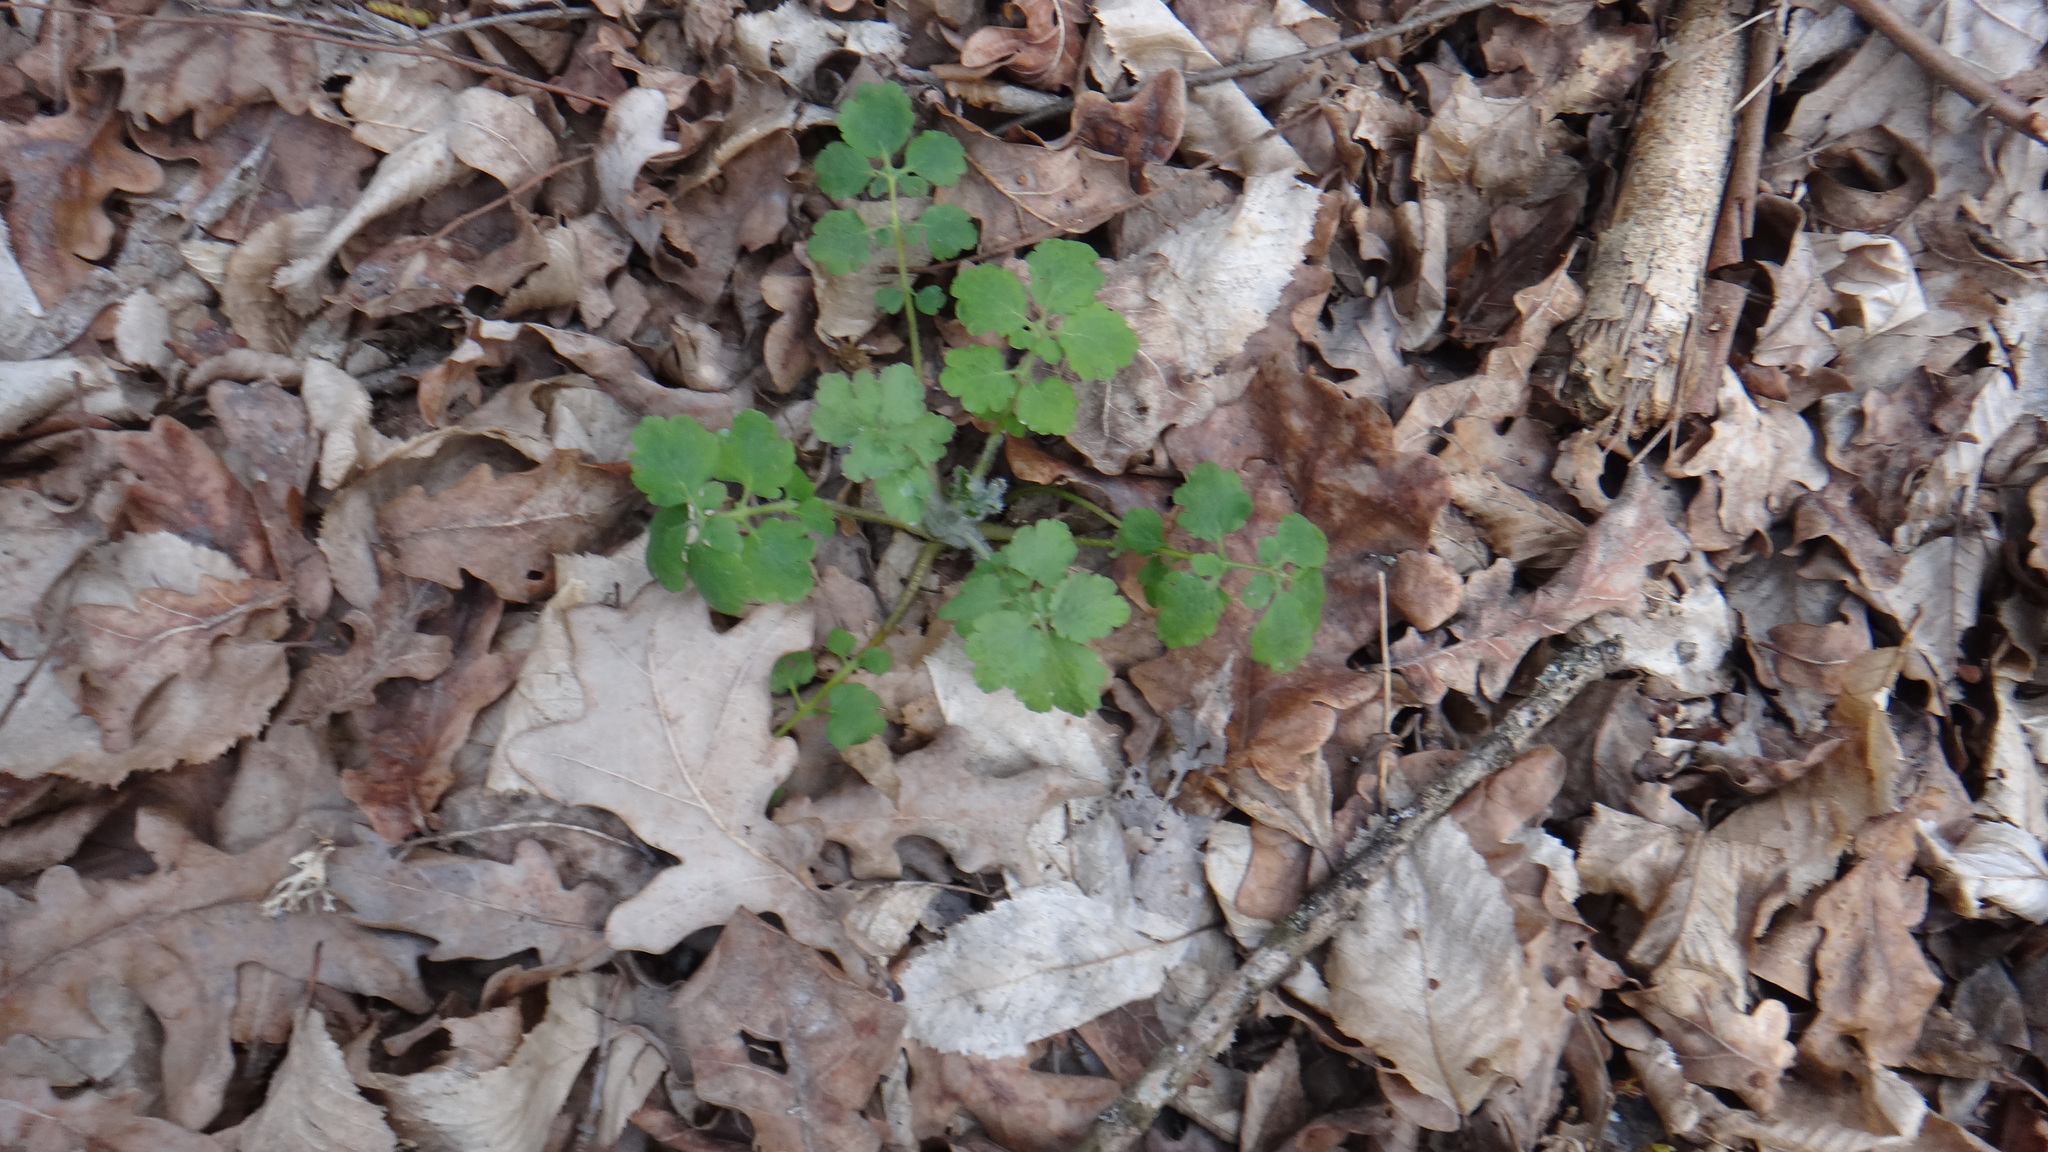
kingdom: Plantae
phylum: Tracheophyta
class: Magnoliopsida
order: Ranunculales
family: Papaveraceae
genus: Chelidonium
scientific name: Chelidonium majus
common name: Greater celandine
